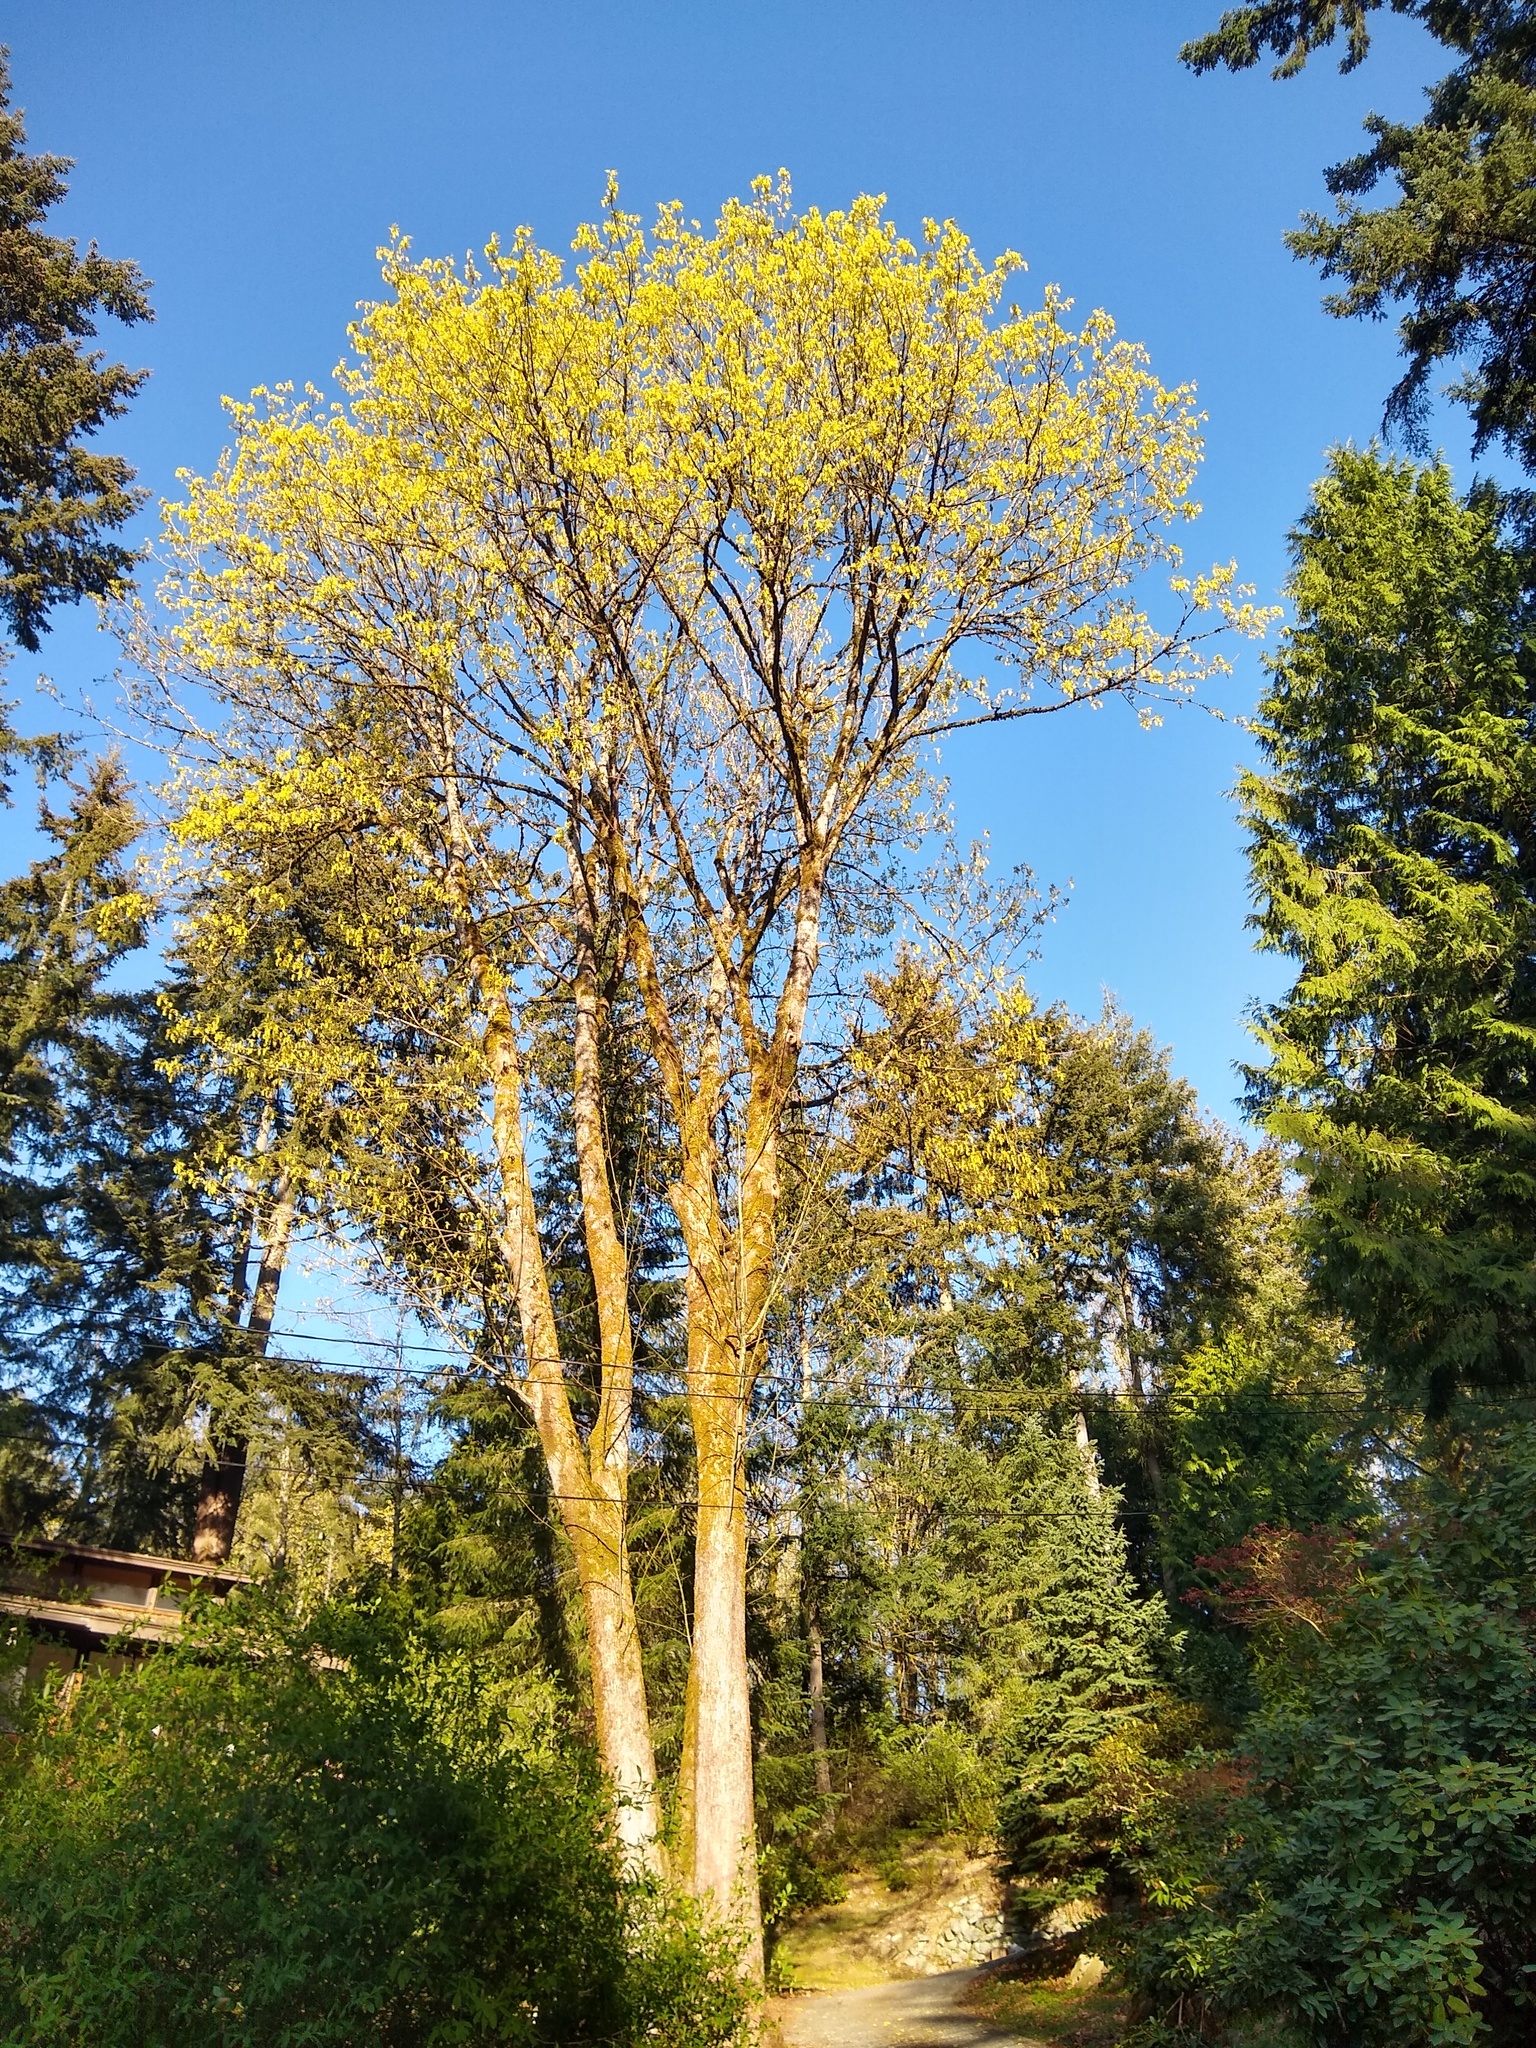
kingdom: Plantae
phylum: Tracheophyta
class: Magnoliopsida
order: Sapindales
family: Sapindaceae
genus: Acer
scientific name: Acer macrophyllum
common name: Oregon maple
